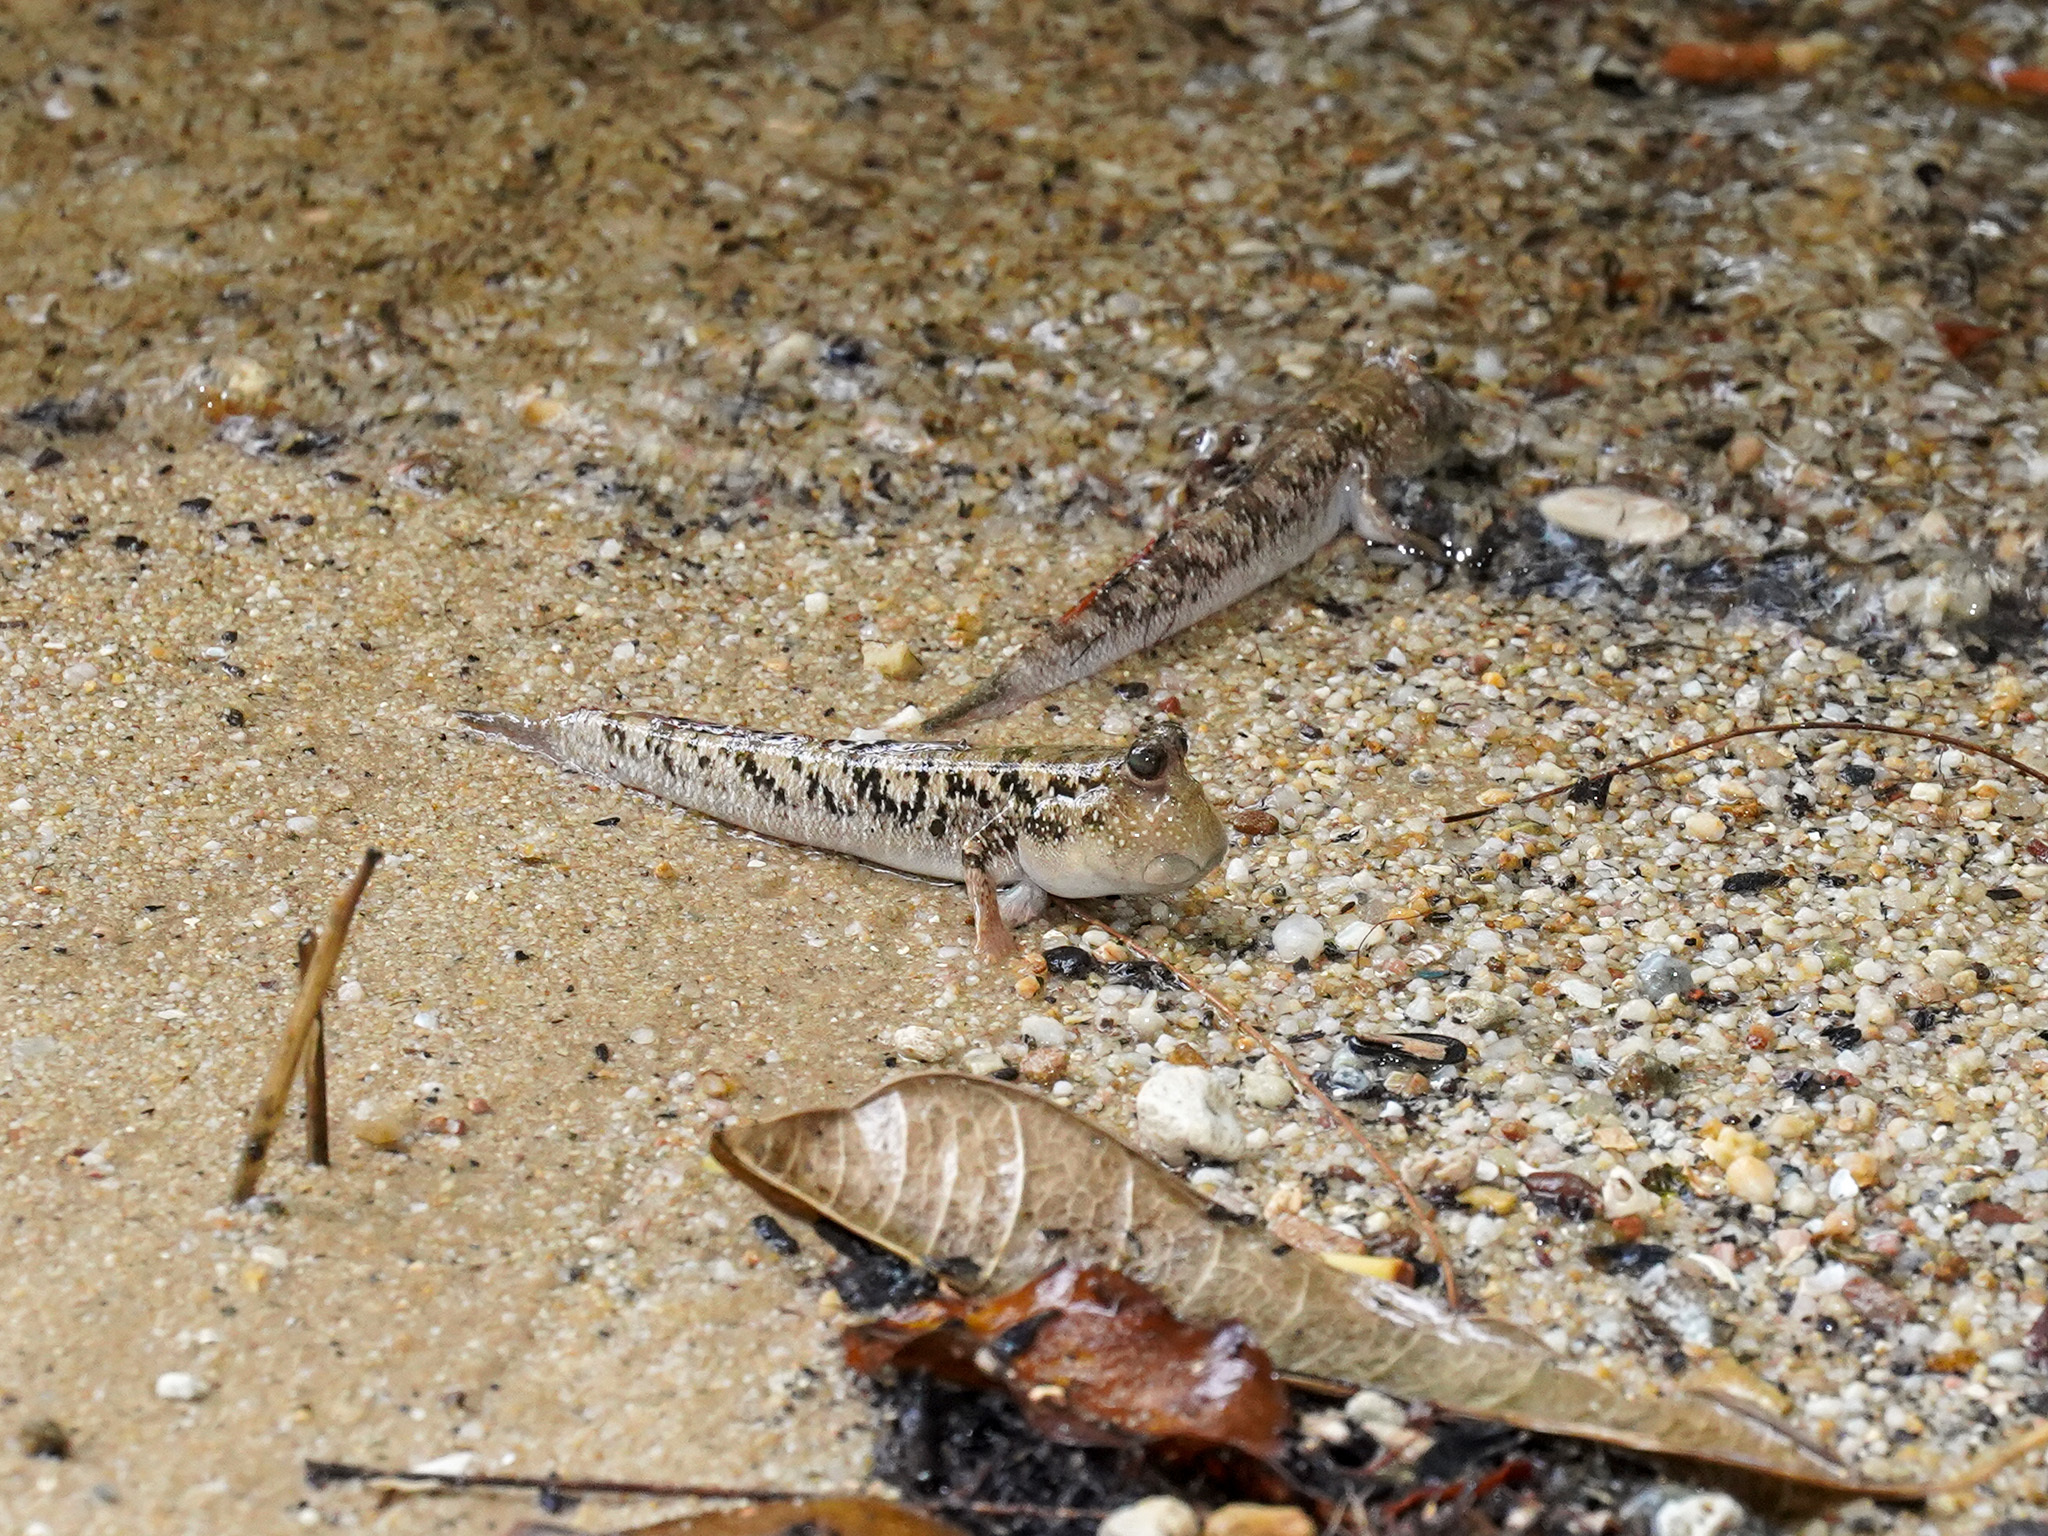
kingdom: Animalia
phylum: Chordata
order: Perciformes
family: Gobiidae
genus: Periophthalmus
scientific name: Periophthalmus argentilineatus
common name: Barred mudskipper
